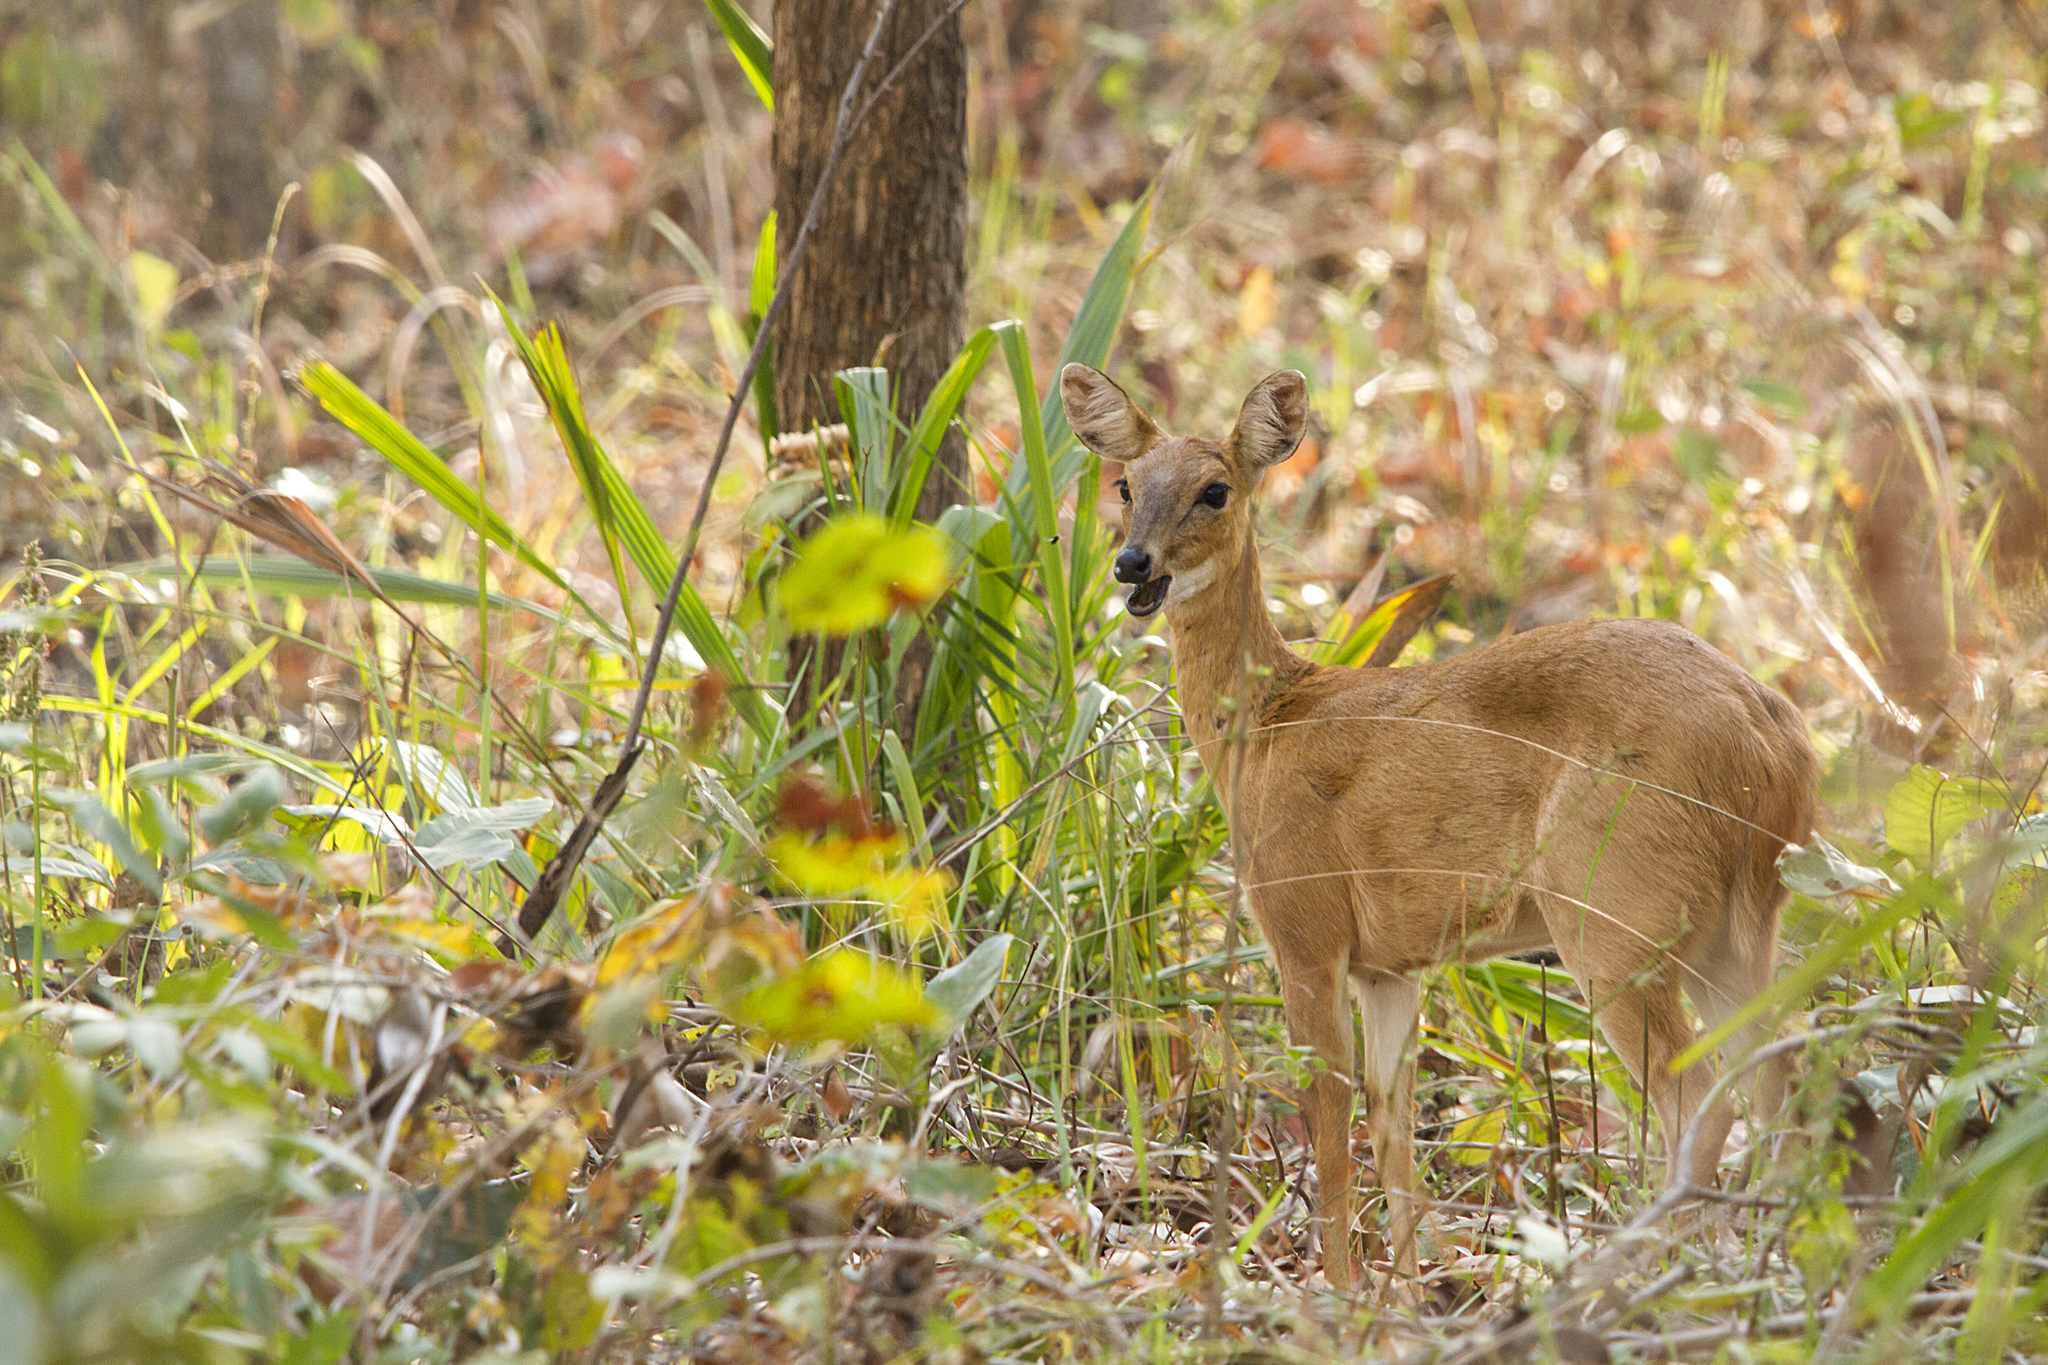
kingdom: Animalia
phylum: Chordata
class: Mammalia
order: Artiodactyla
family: Bovidae
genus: Tetracerus
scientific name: Tetracerus quadricornis
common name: Four-horned antelope
